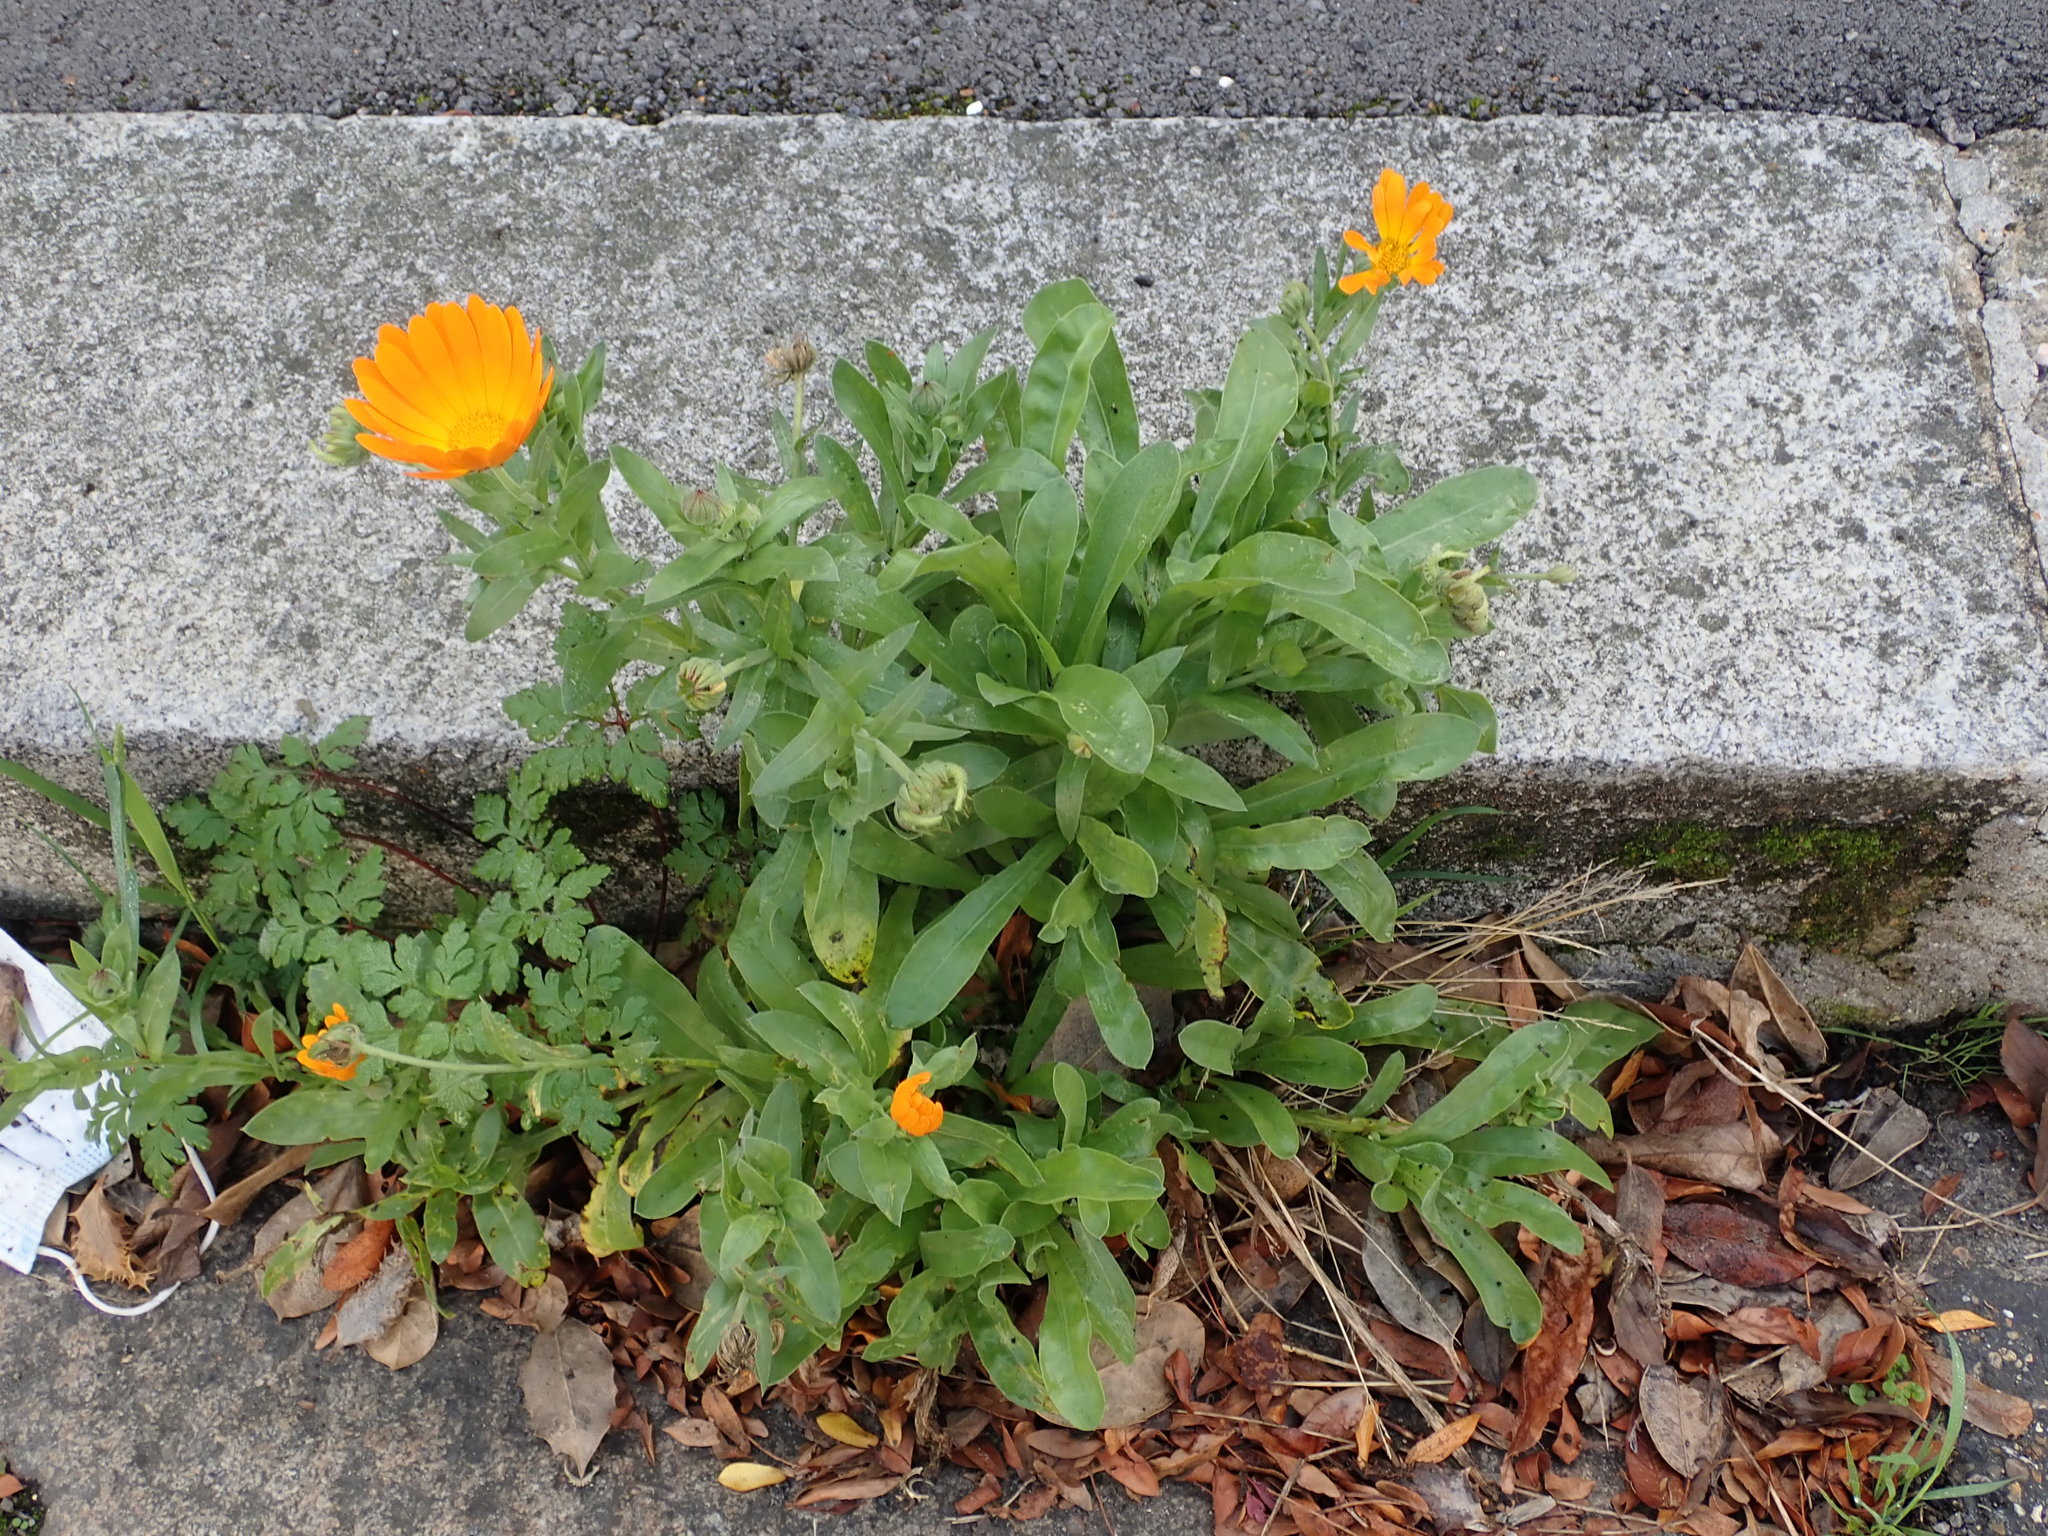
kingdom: Plantae
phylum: Tracheophyta
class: Magnoliopsida
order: Asterales
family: Asteraceae
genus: Calendula
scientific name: Calendula officinalis
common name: Pot marigold
